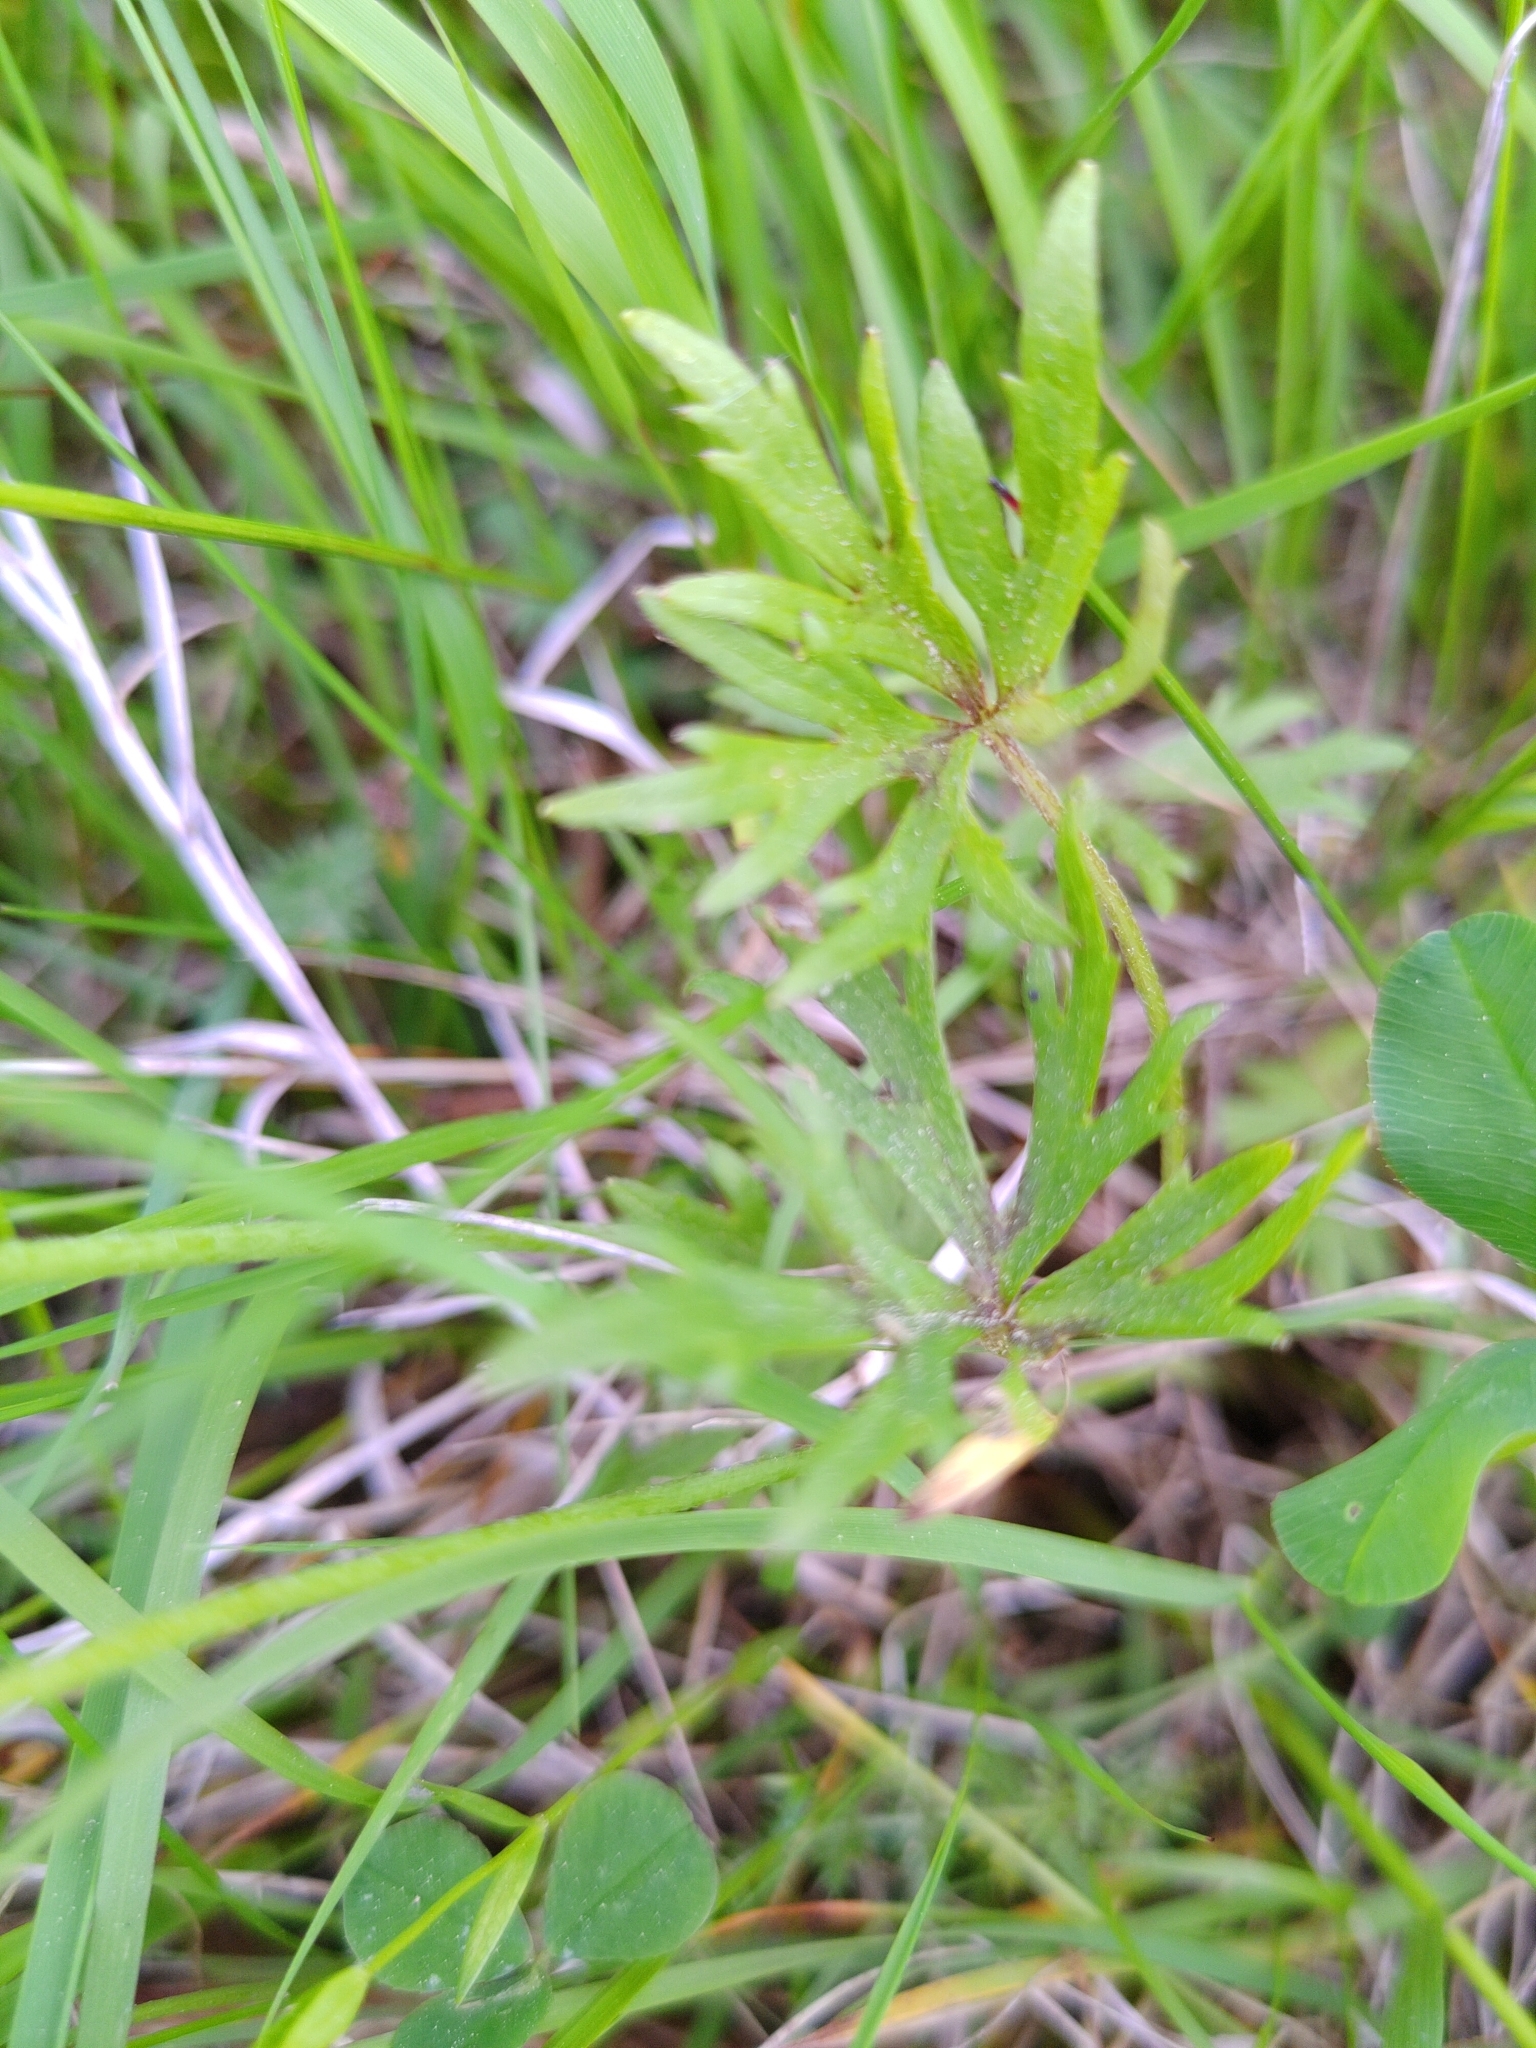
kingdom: Plantae
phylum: Tracheophyta
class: Magnoliopsida
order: Ranunculales
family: Ranunculaceae
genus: Ranunculus
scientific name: Ranunculus acris
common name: Meadow buttercup
